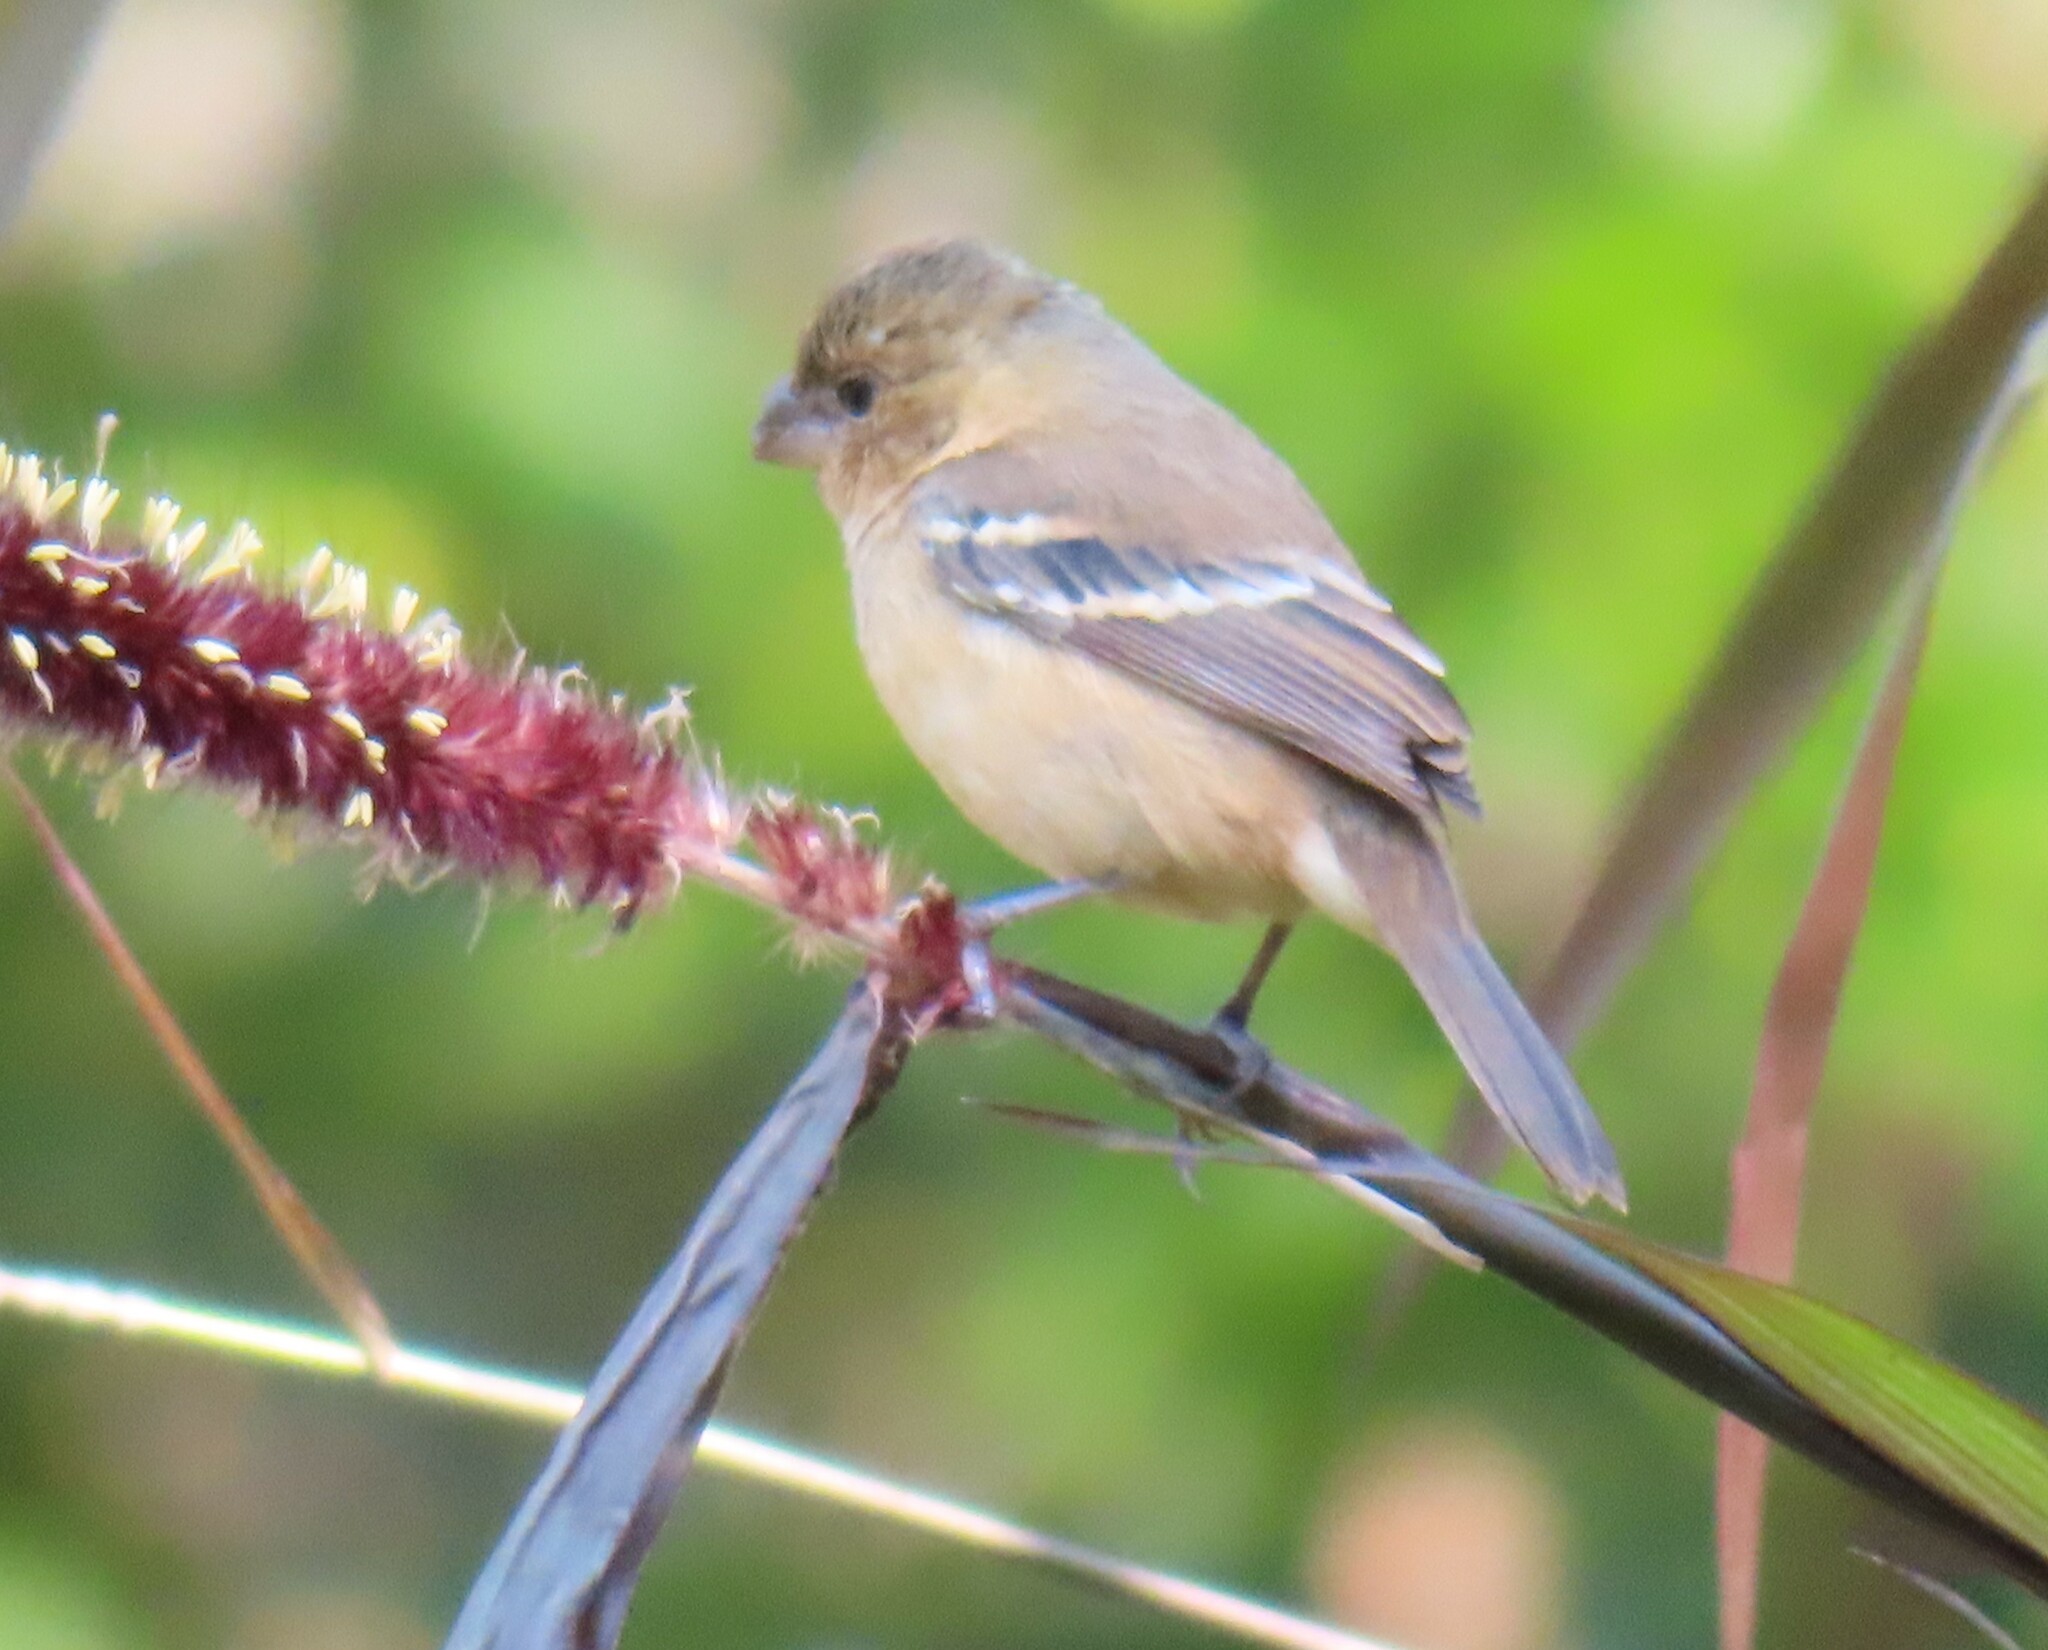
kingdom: Animalia
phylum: Chordata
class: Aves
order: Passeriformes
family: Thraupidae
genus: Sporophila
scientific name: Sporophila morelleti
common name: Morelet's seedeater
